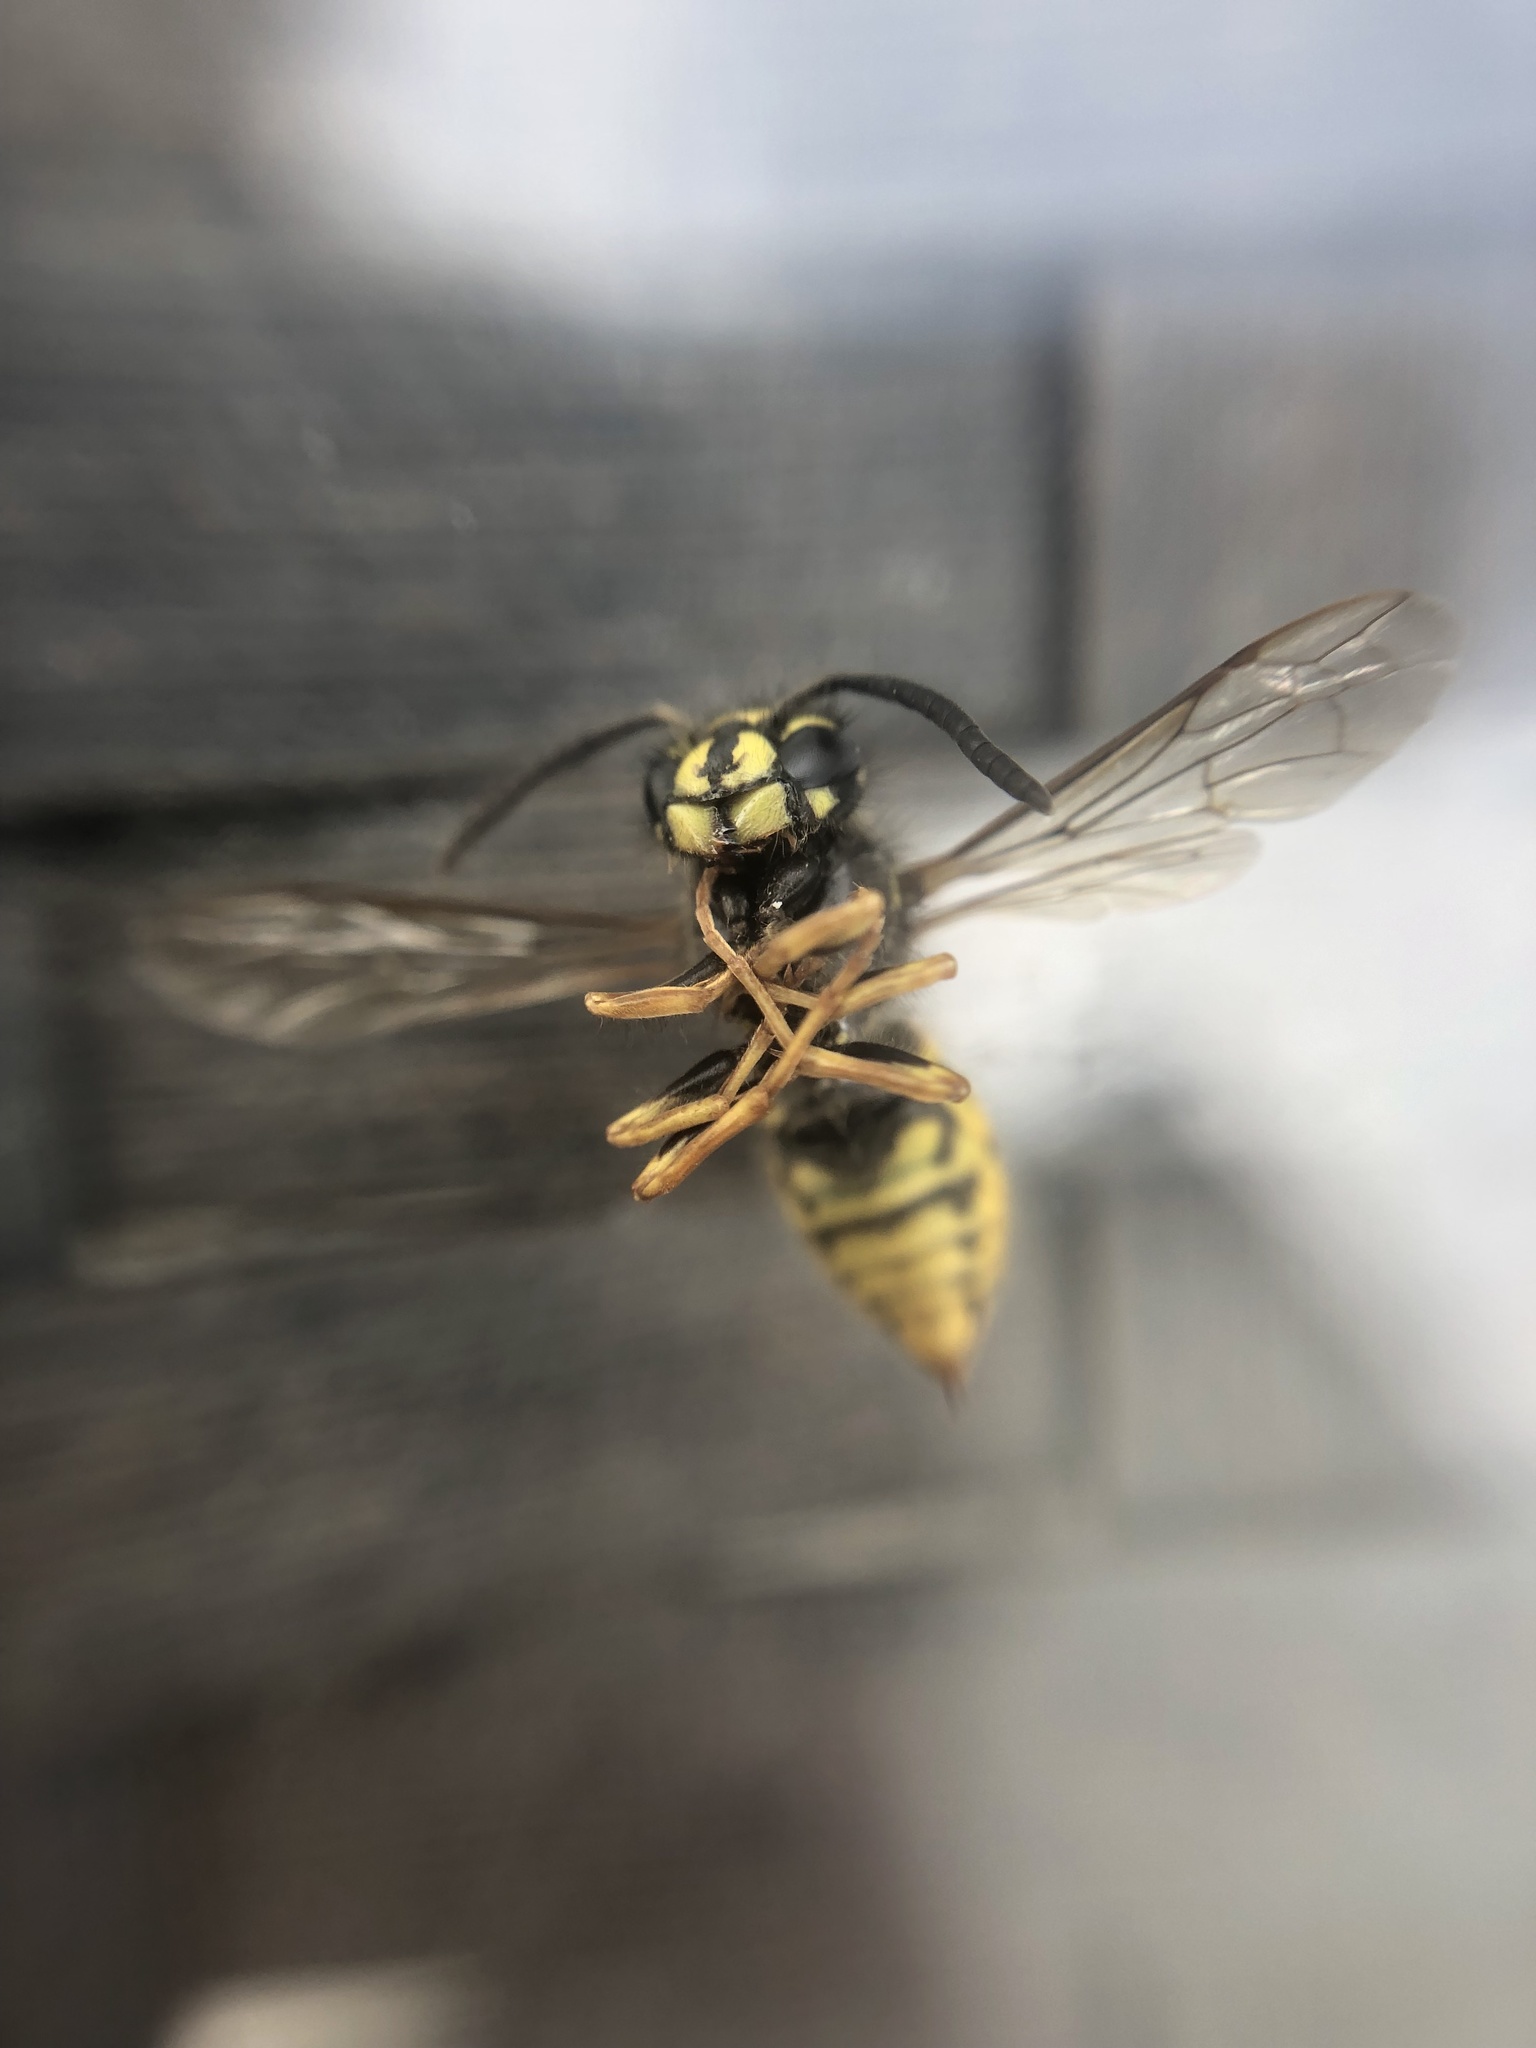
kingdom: Animalia
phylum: Arthropoda
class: Insecta
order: Hymenoptera
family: Vespidae
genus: Vespula
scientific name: Vespula vulgaris
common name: Common wasp
